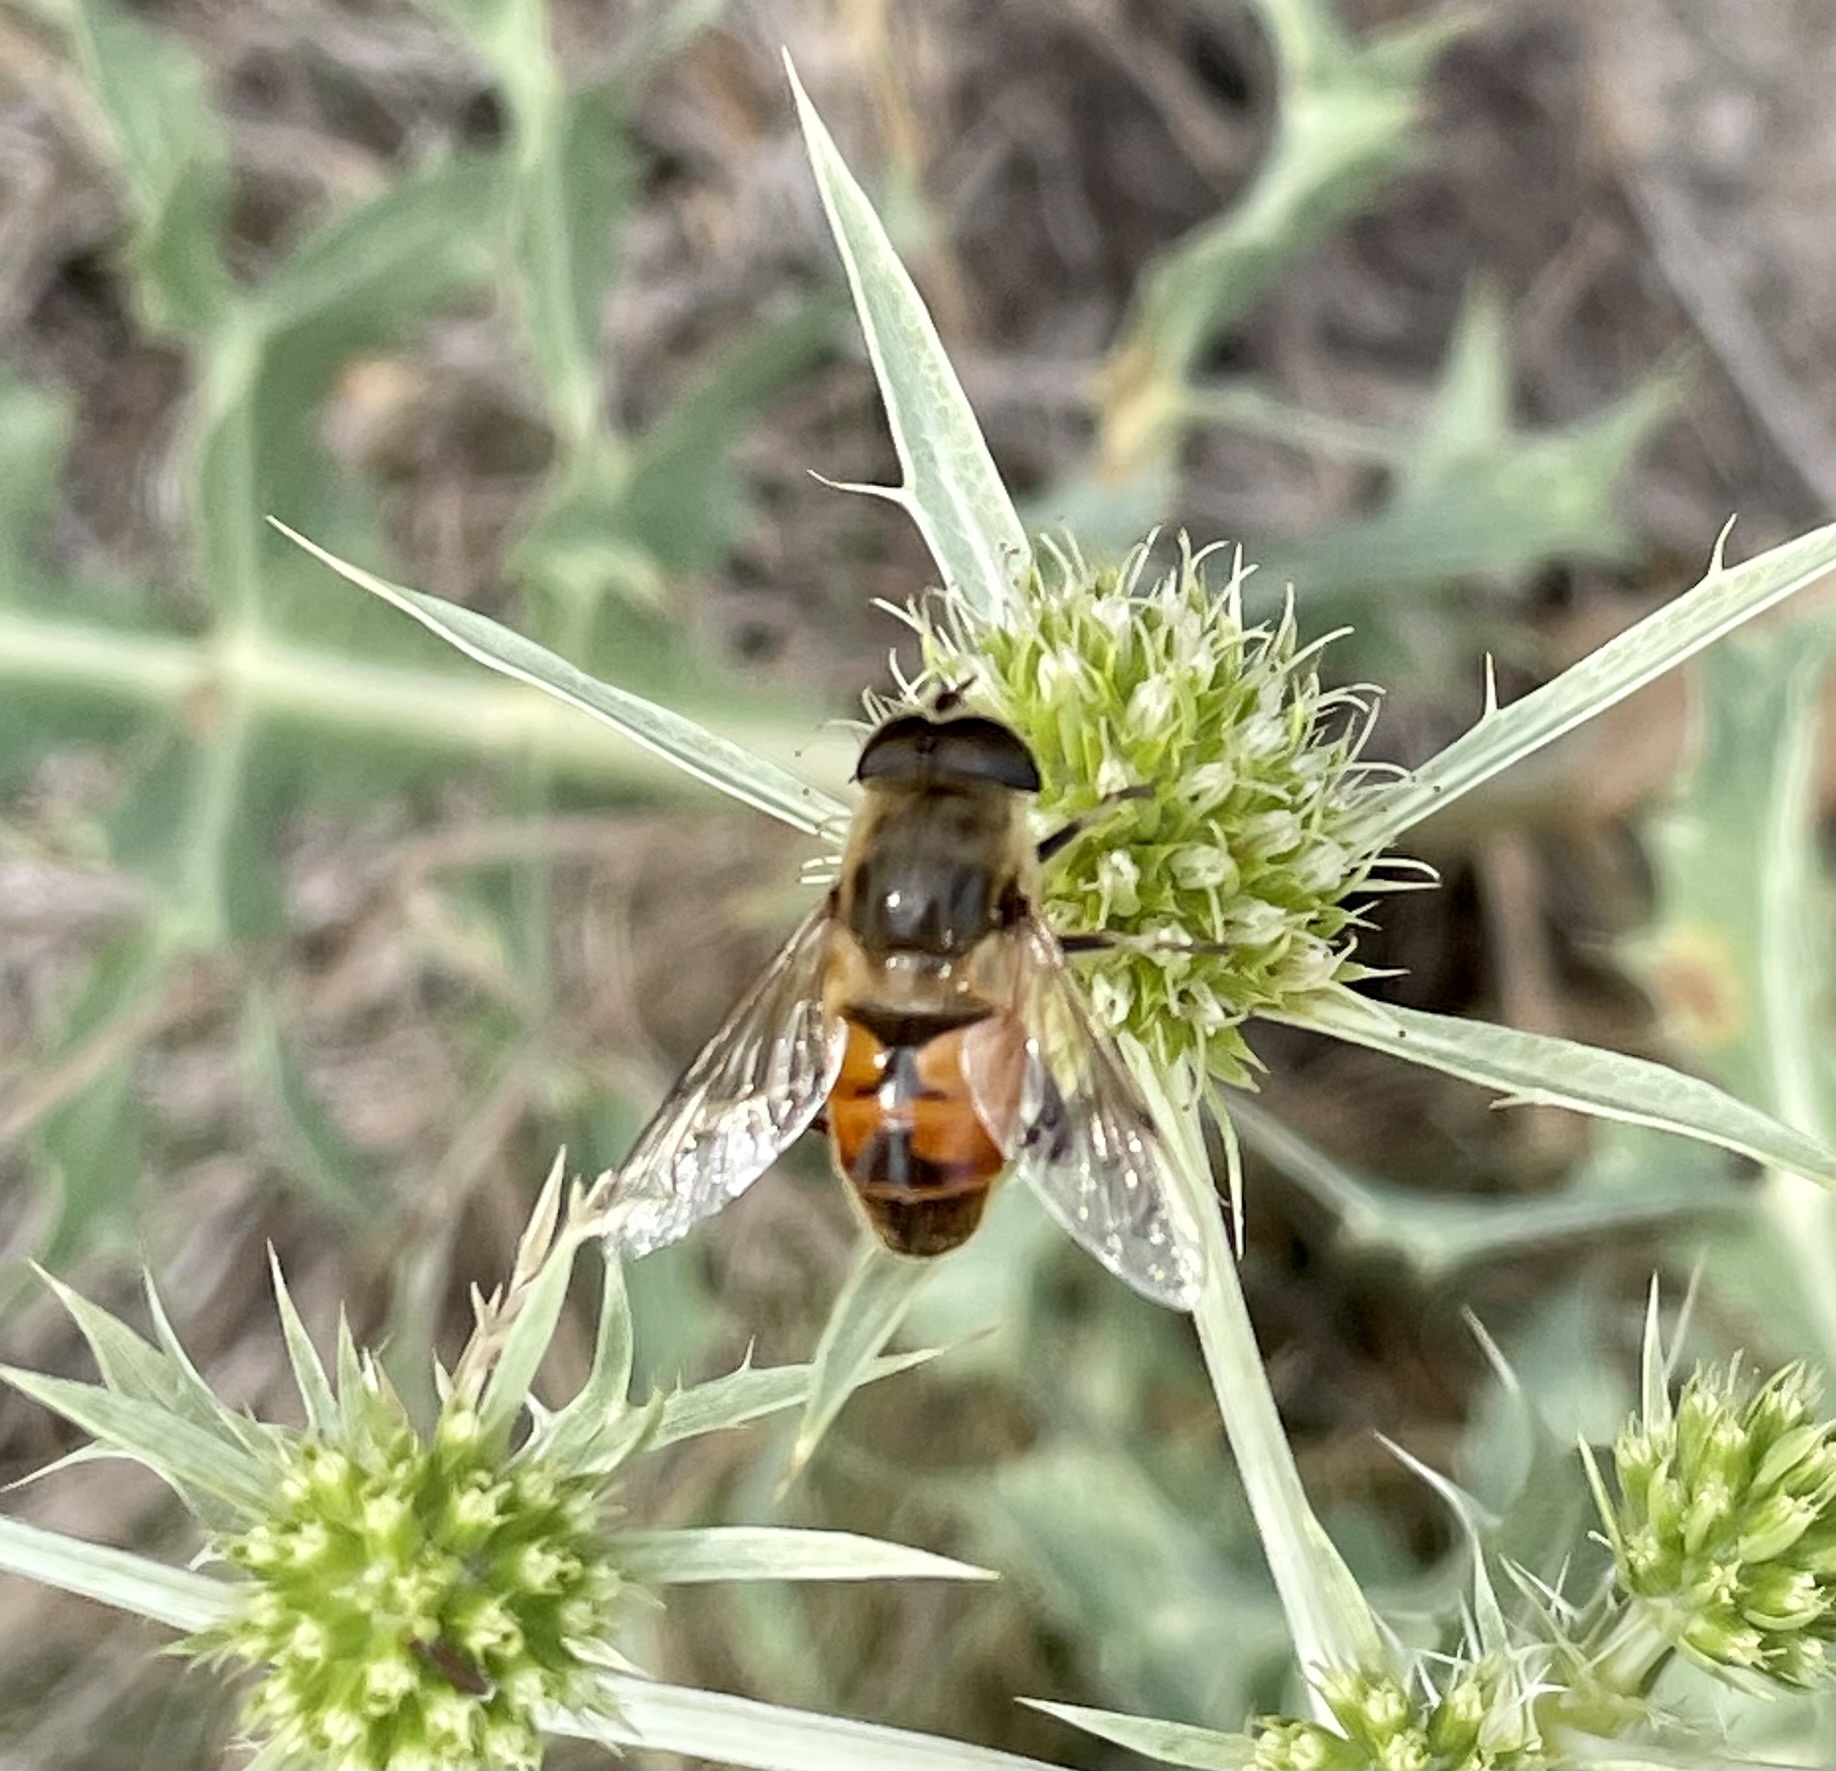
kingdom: Animalia
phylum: Arthropoda
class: Insecta
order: Diptera
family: Syrphidae
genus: Eristalis
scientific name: Eristalis tenax
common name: Drone fly
